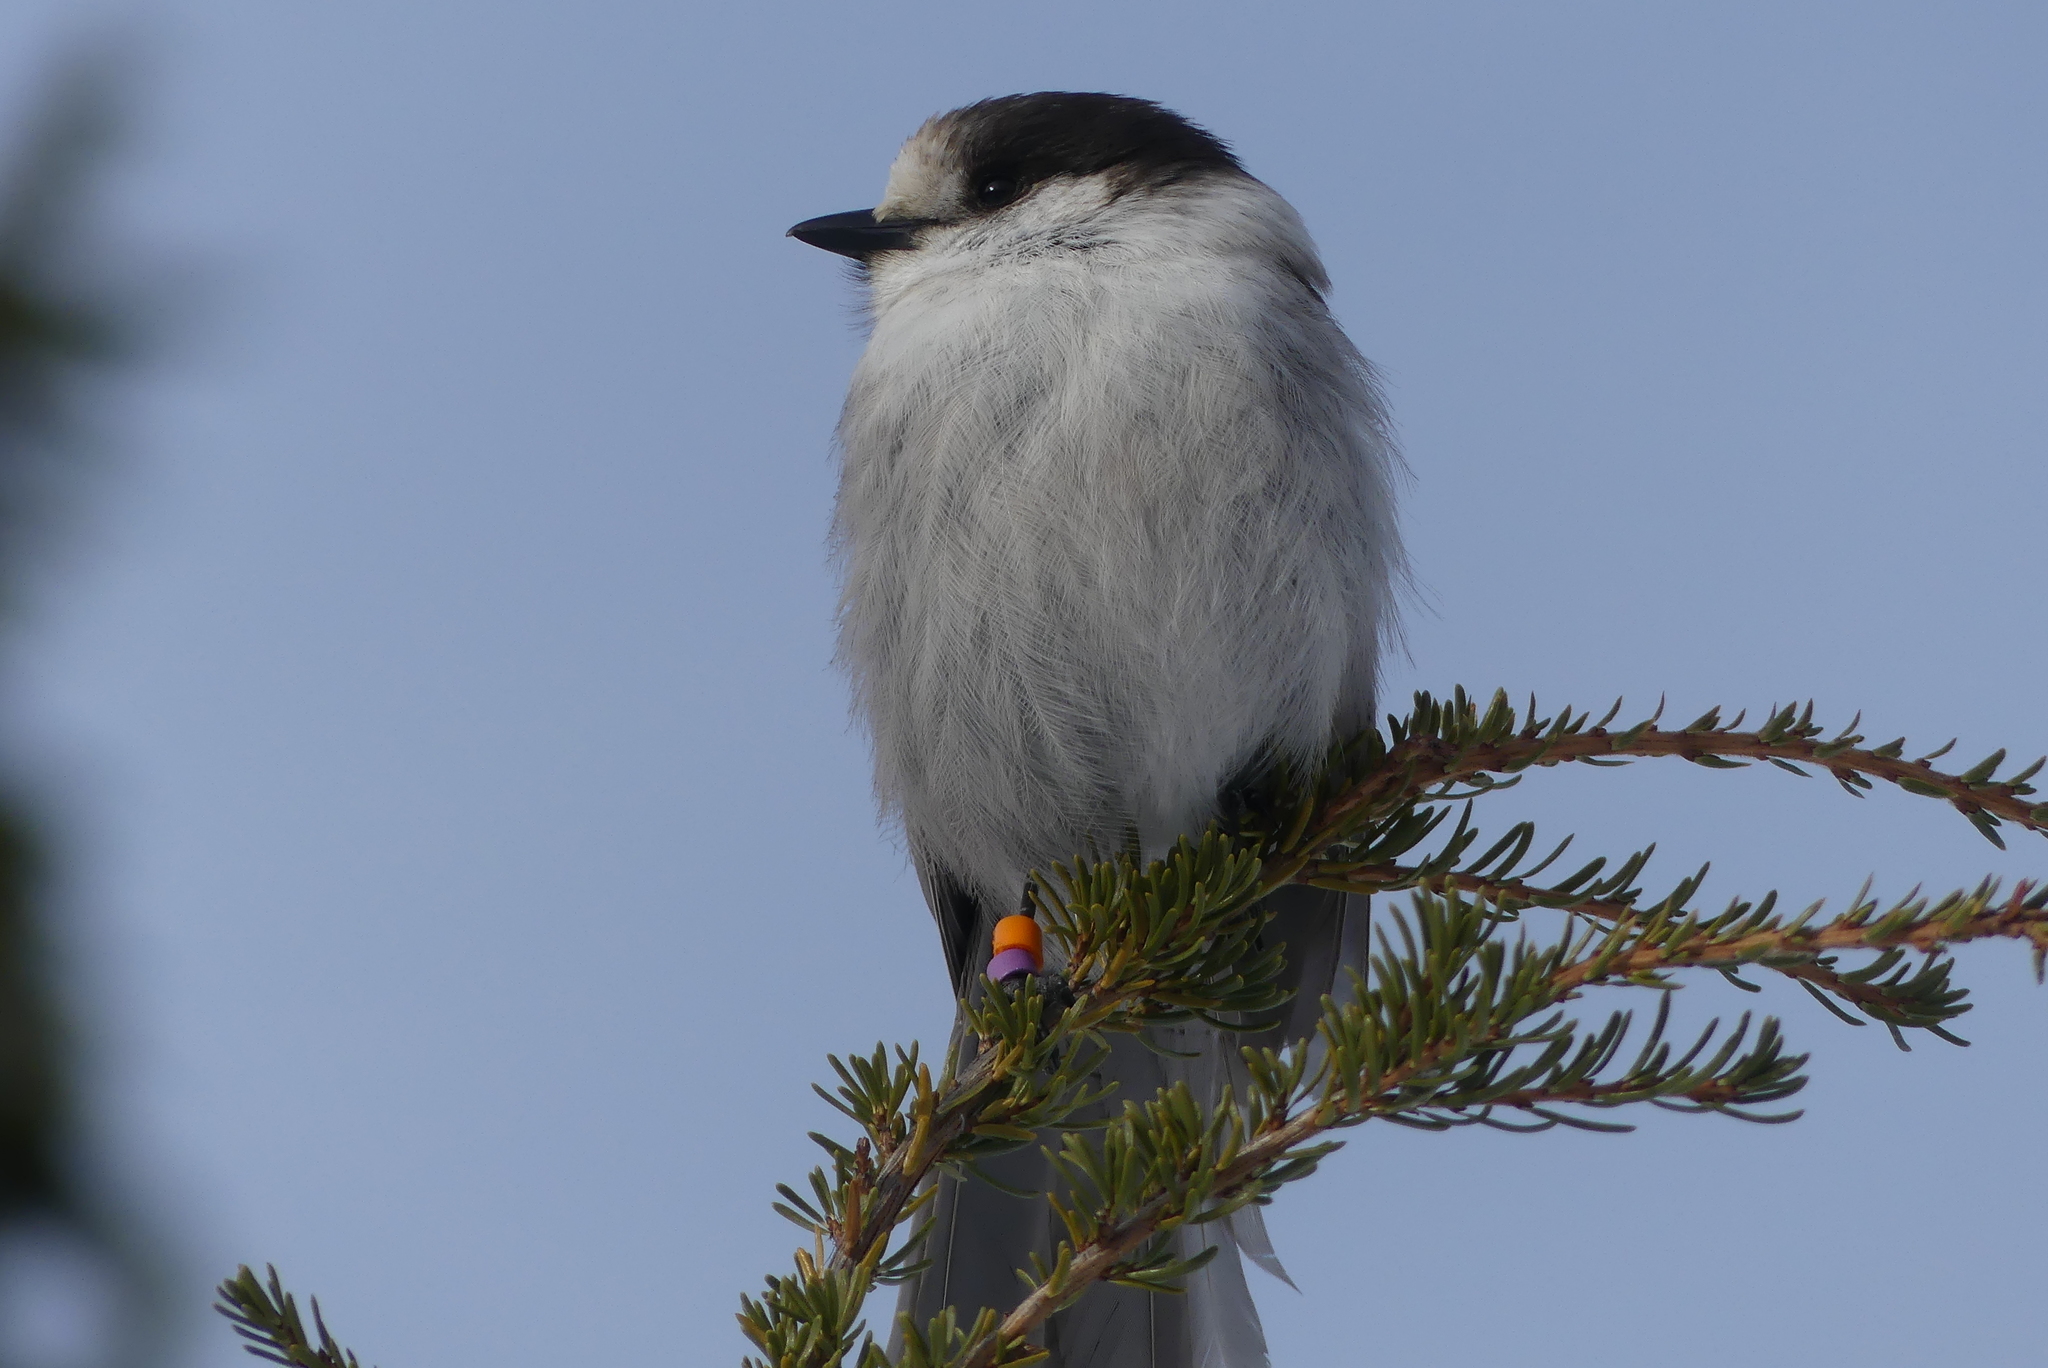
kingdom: Animalia
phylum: Chordata
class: Aves
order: Passeriformes
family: Corvidae
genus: Perisoreus
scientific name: Perisoreus canadensis
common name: Gray jay
